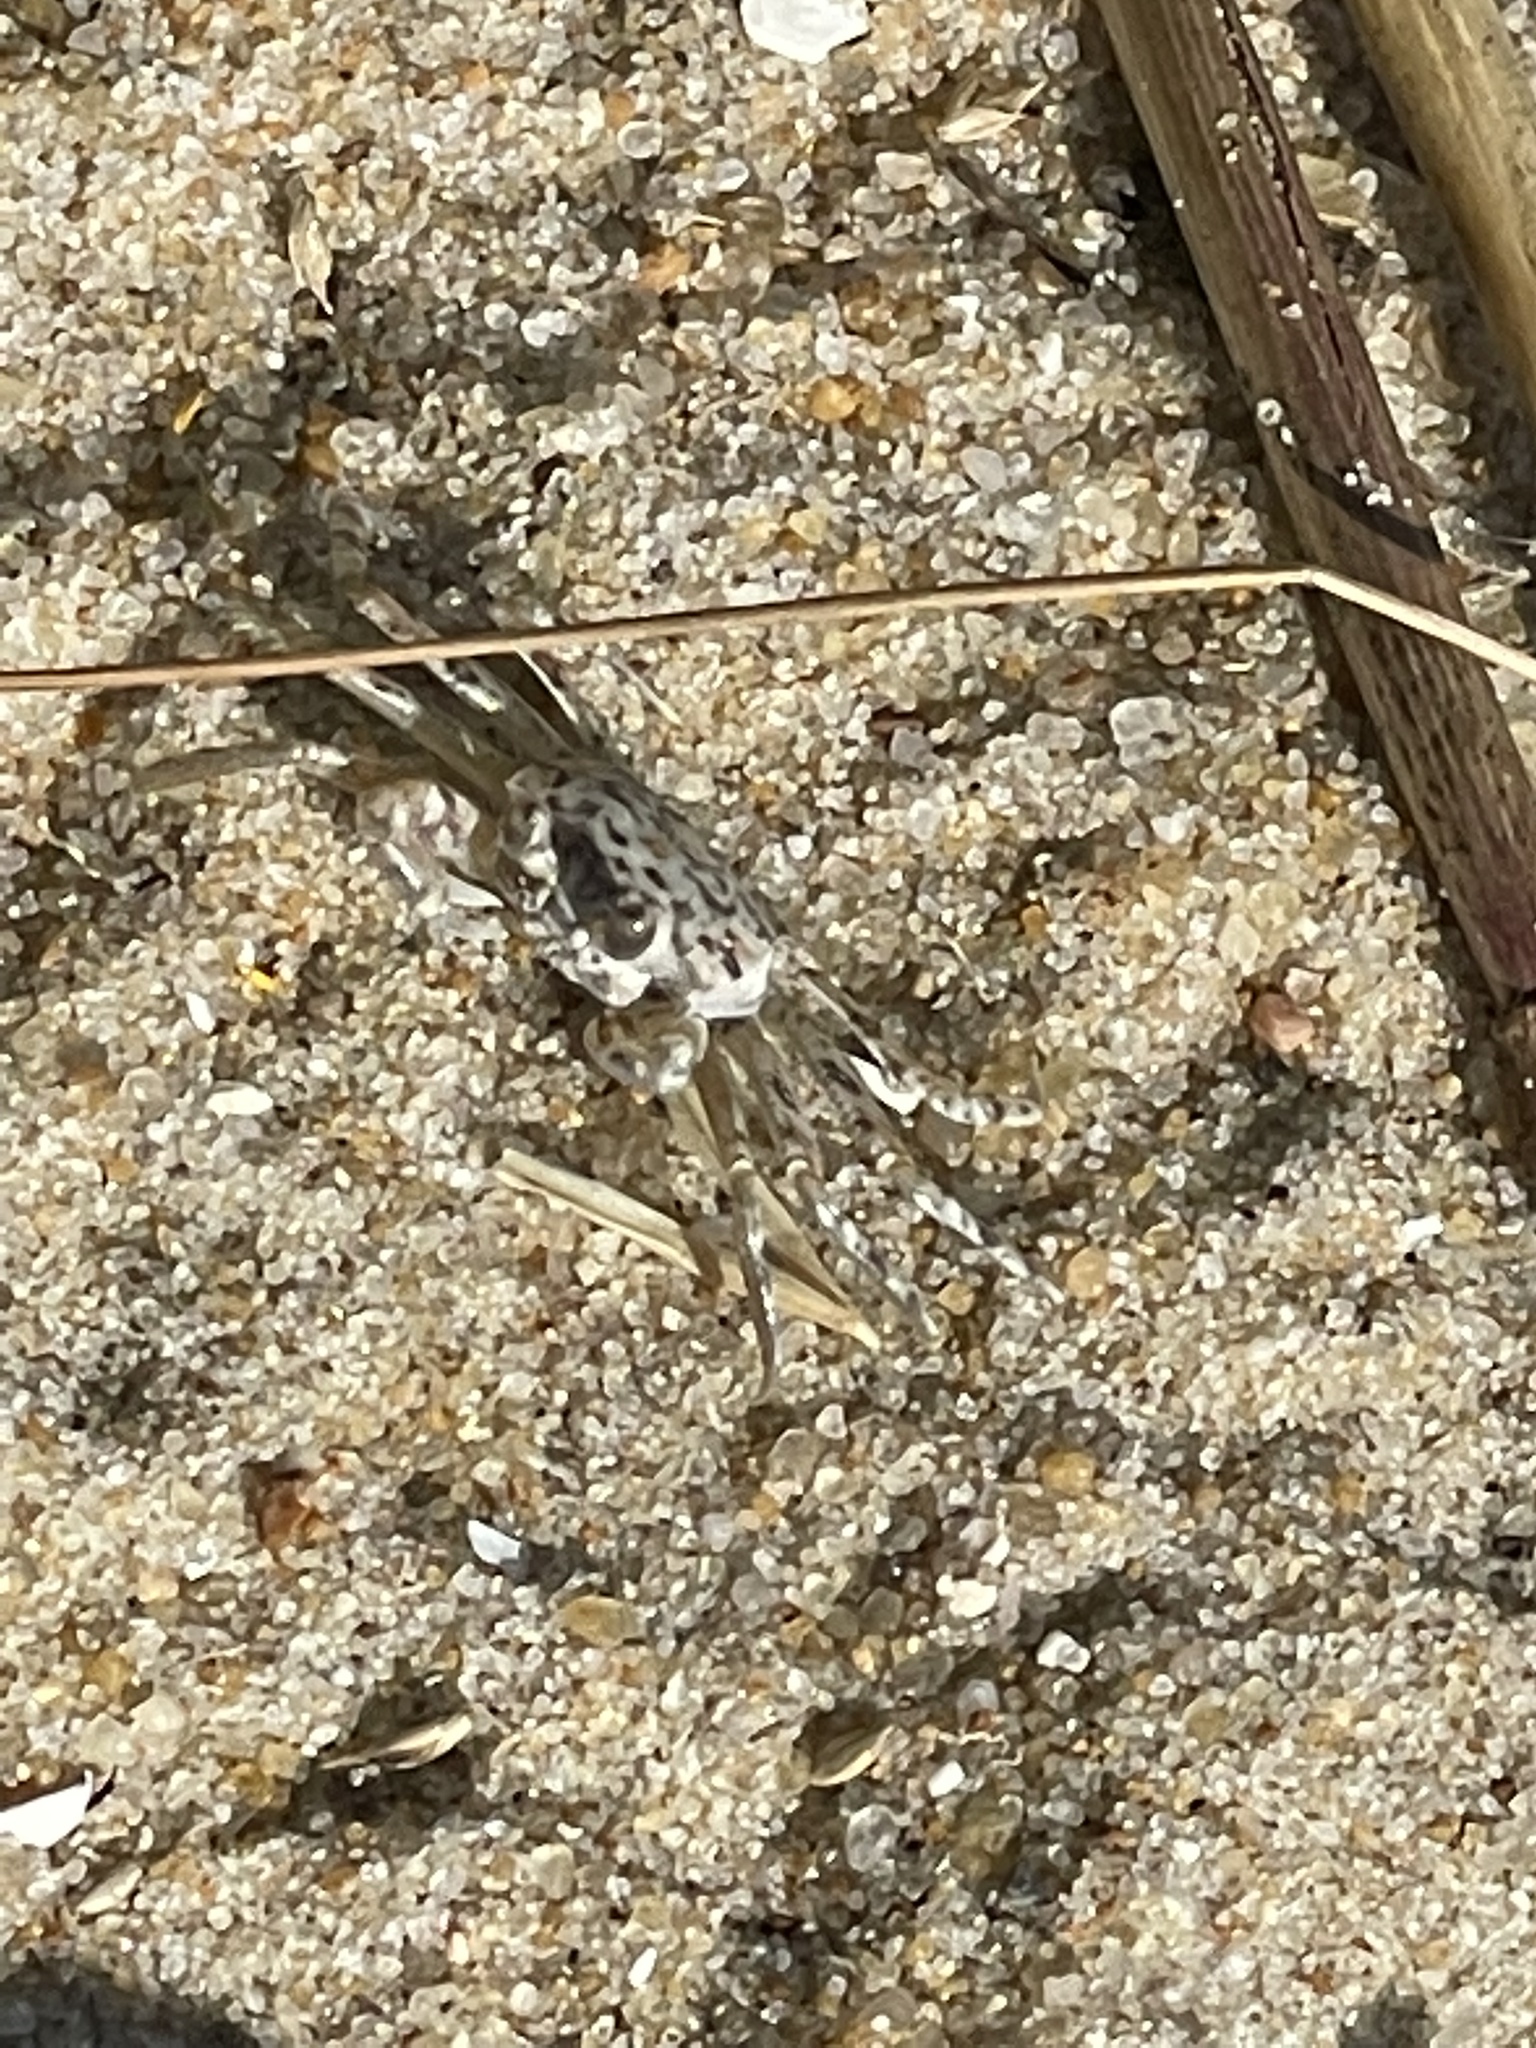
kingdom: Animalia
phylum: Arthropoda
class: Malacostraca
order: Decapoda
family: Ocypodidae
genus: Ocypode
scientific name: Ocypode quadrata
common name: Ghost crab
